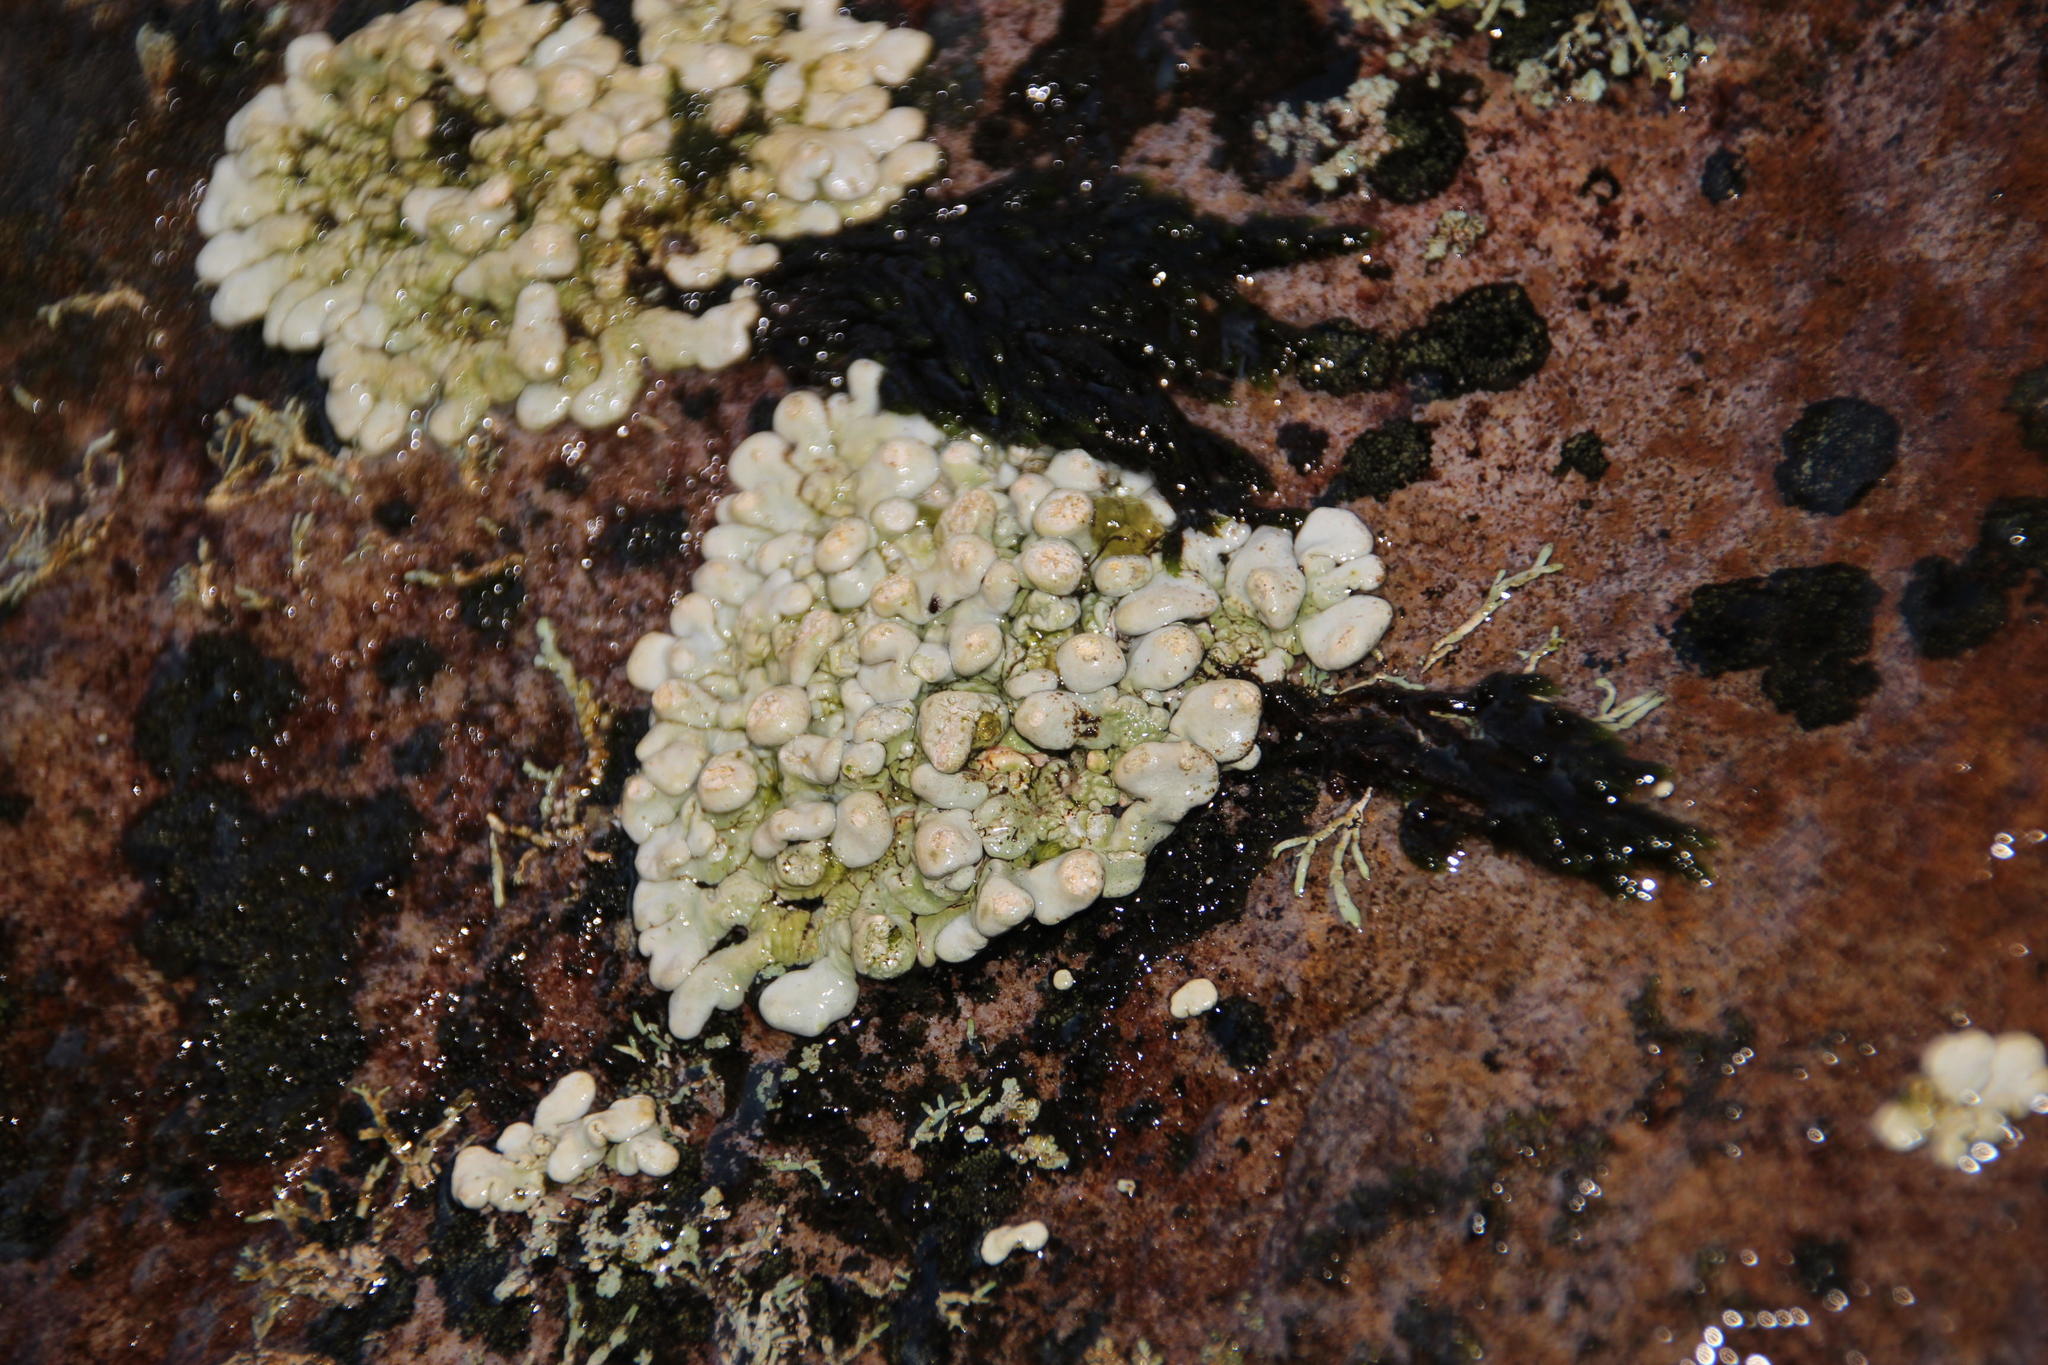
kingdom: Fungi
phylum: Ascomycota
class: Lecanoromycetes
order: Pertusariales
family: Icmadophilaceae
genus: Siphula
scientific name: Siphula verrucigera
